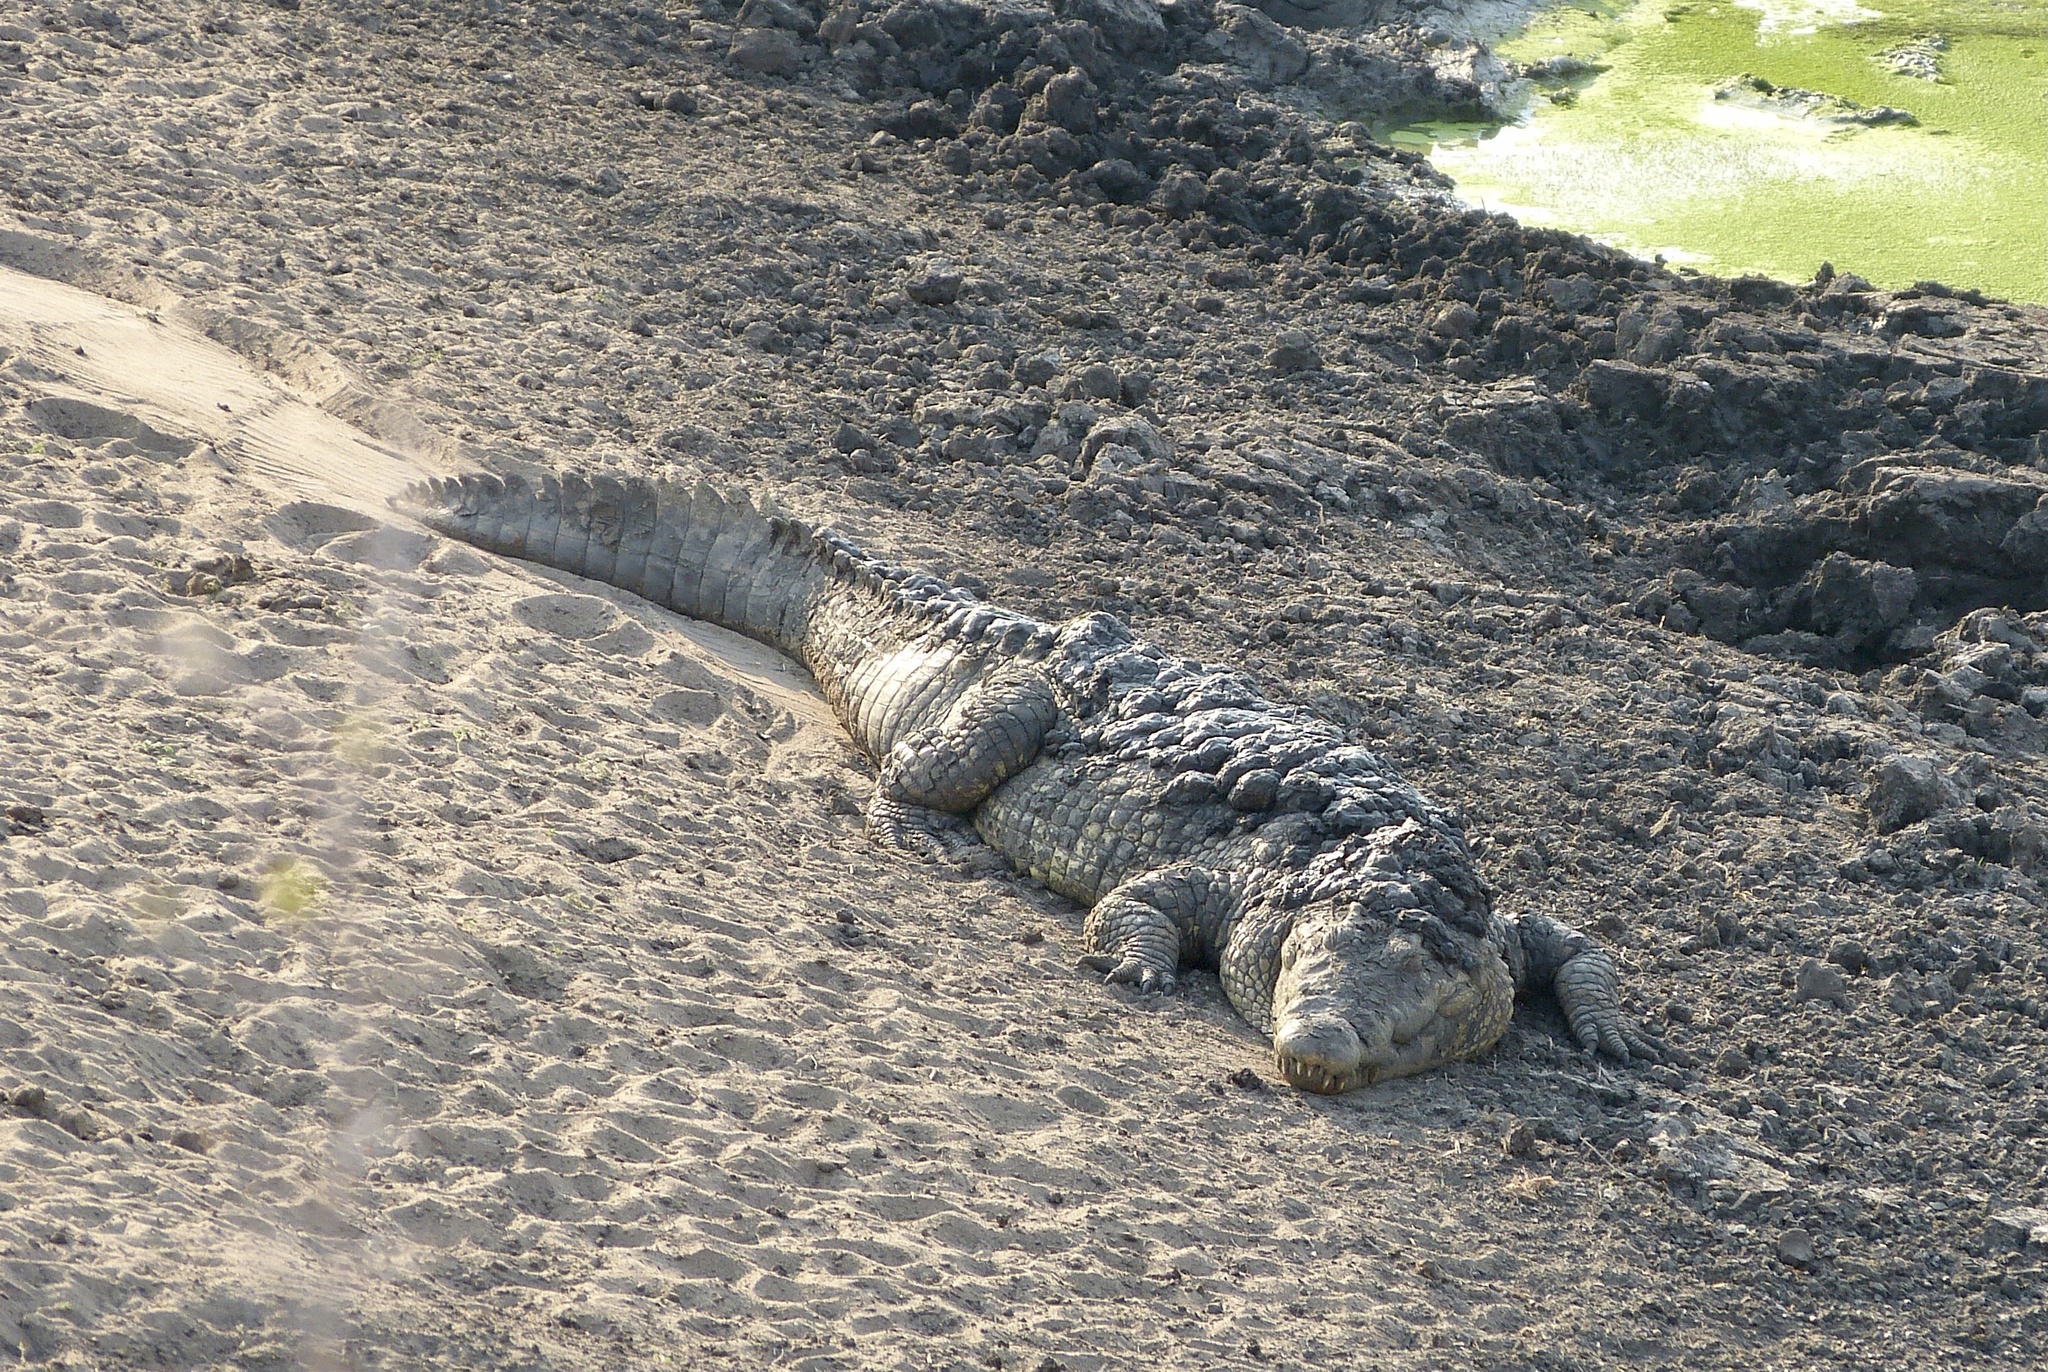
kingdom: Animalia
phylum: Chordata
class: Crocodylia
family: Crocodylidae
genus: Crocodylus
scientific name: Crocodylus niloticus
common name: Nile crocodile
